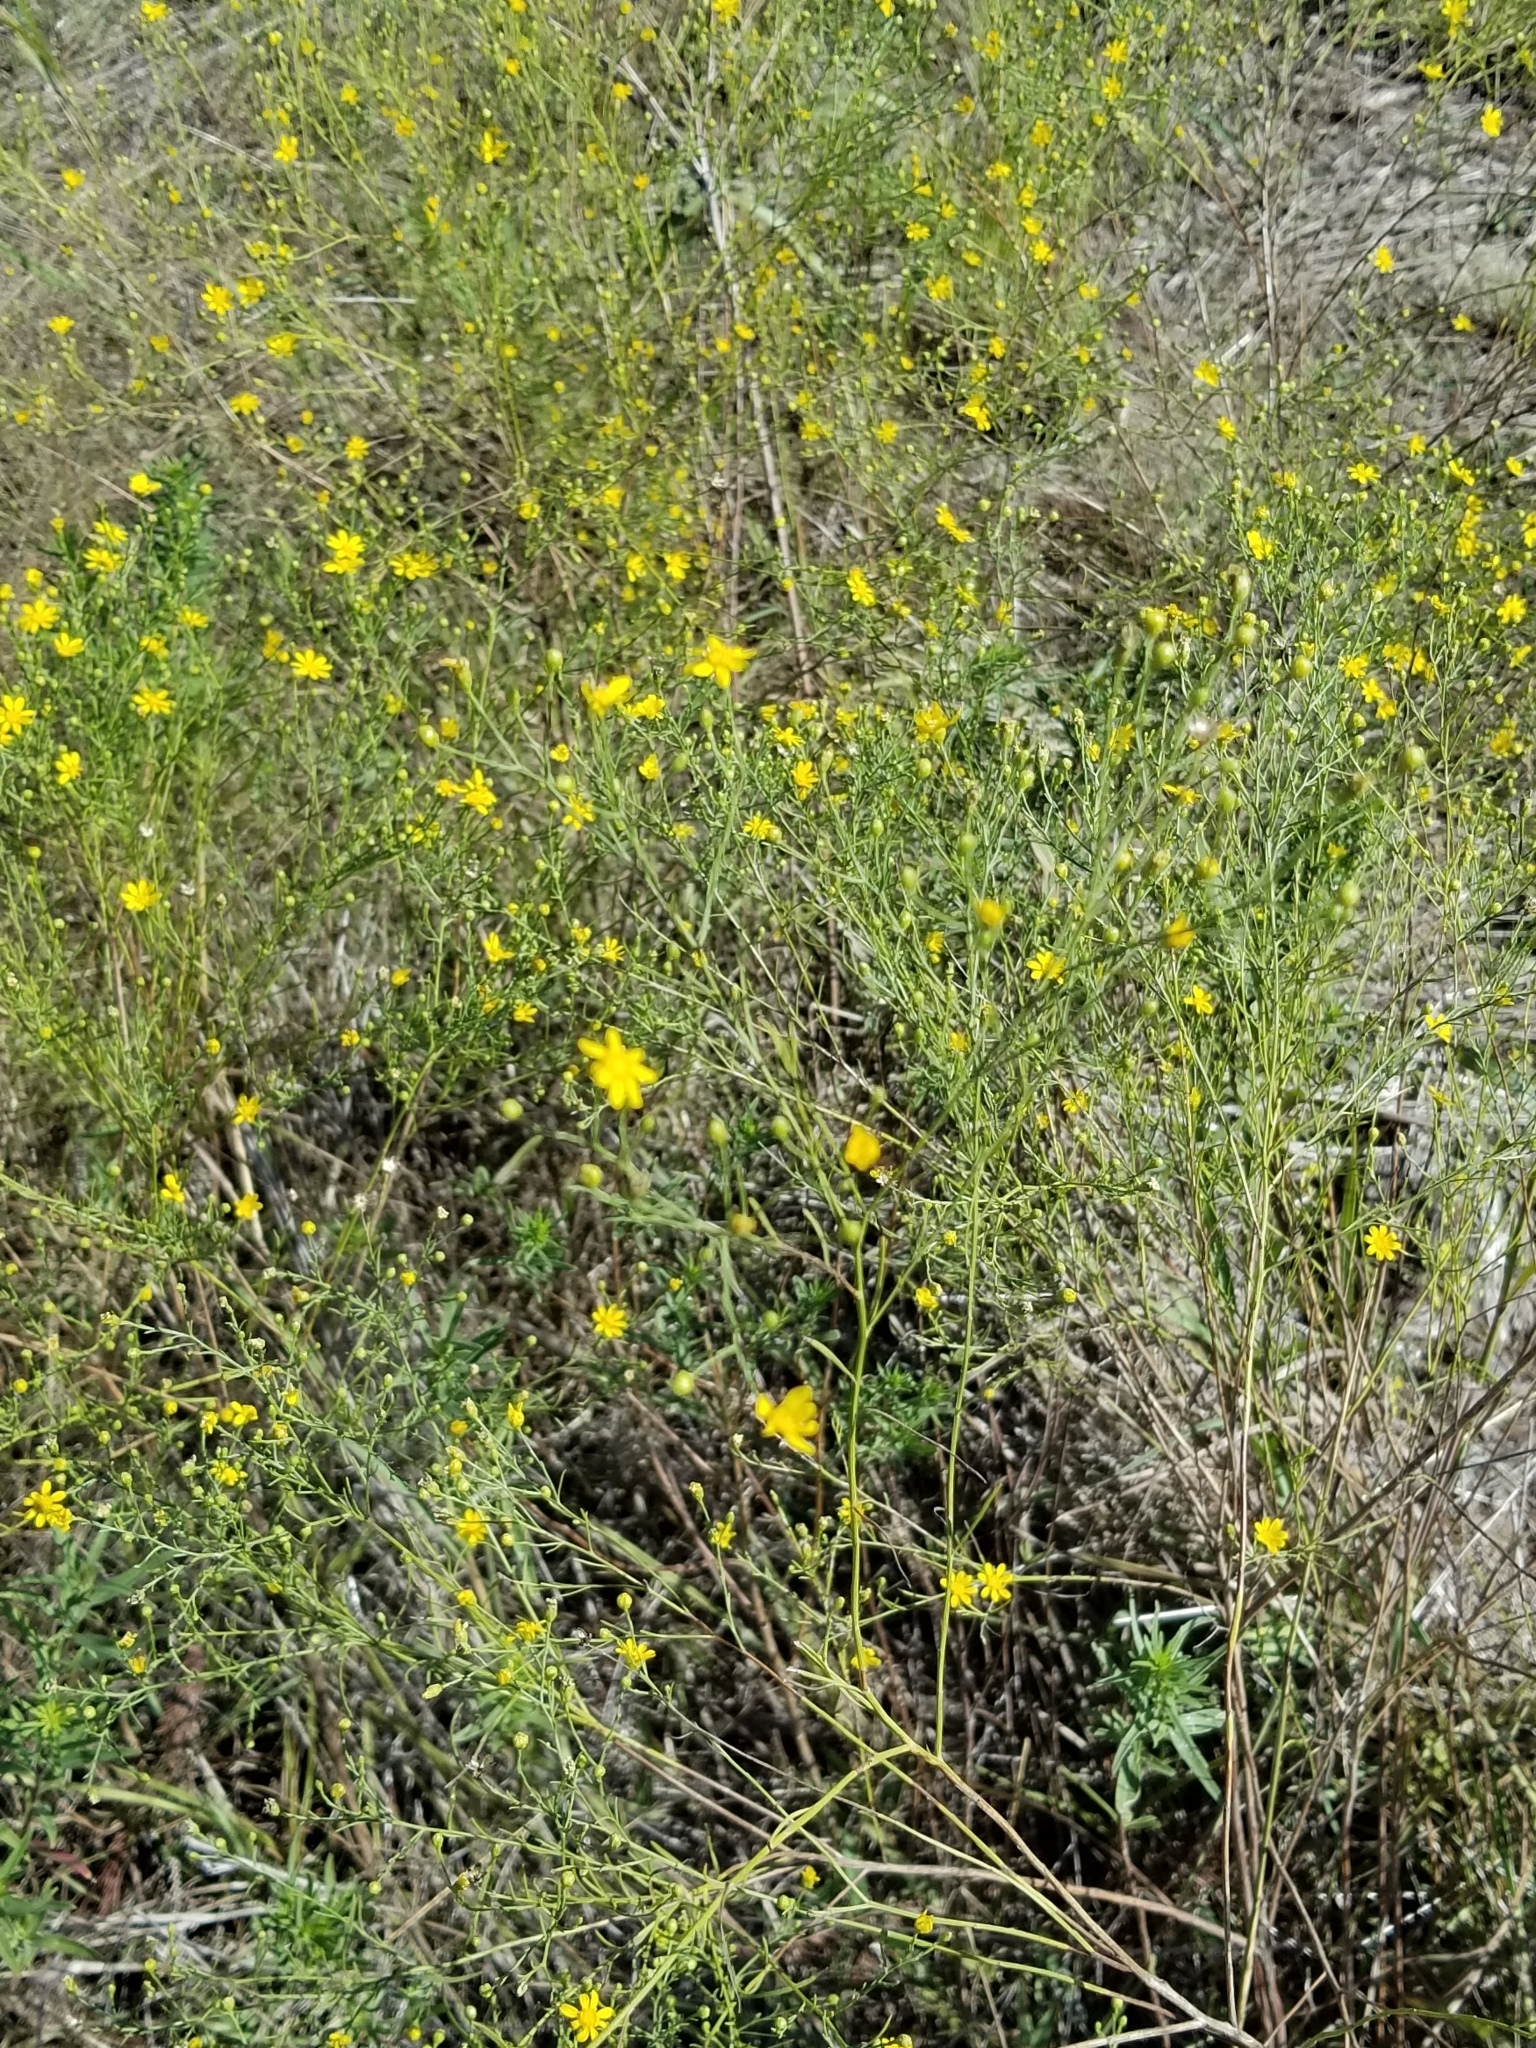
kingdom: Plantae
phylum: Tracheophyta
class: Magnoliopsida
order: Asterales
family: Asteraceae
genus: Amphiachyris
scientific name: Amphiachyris dracunculoides
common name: Broomweed
